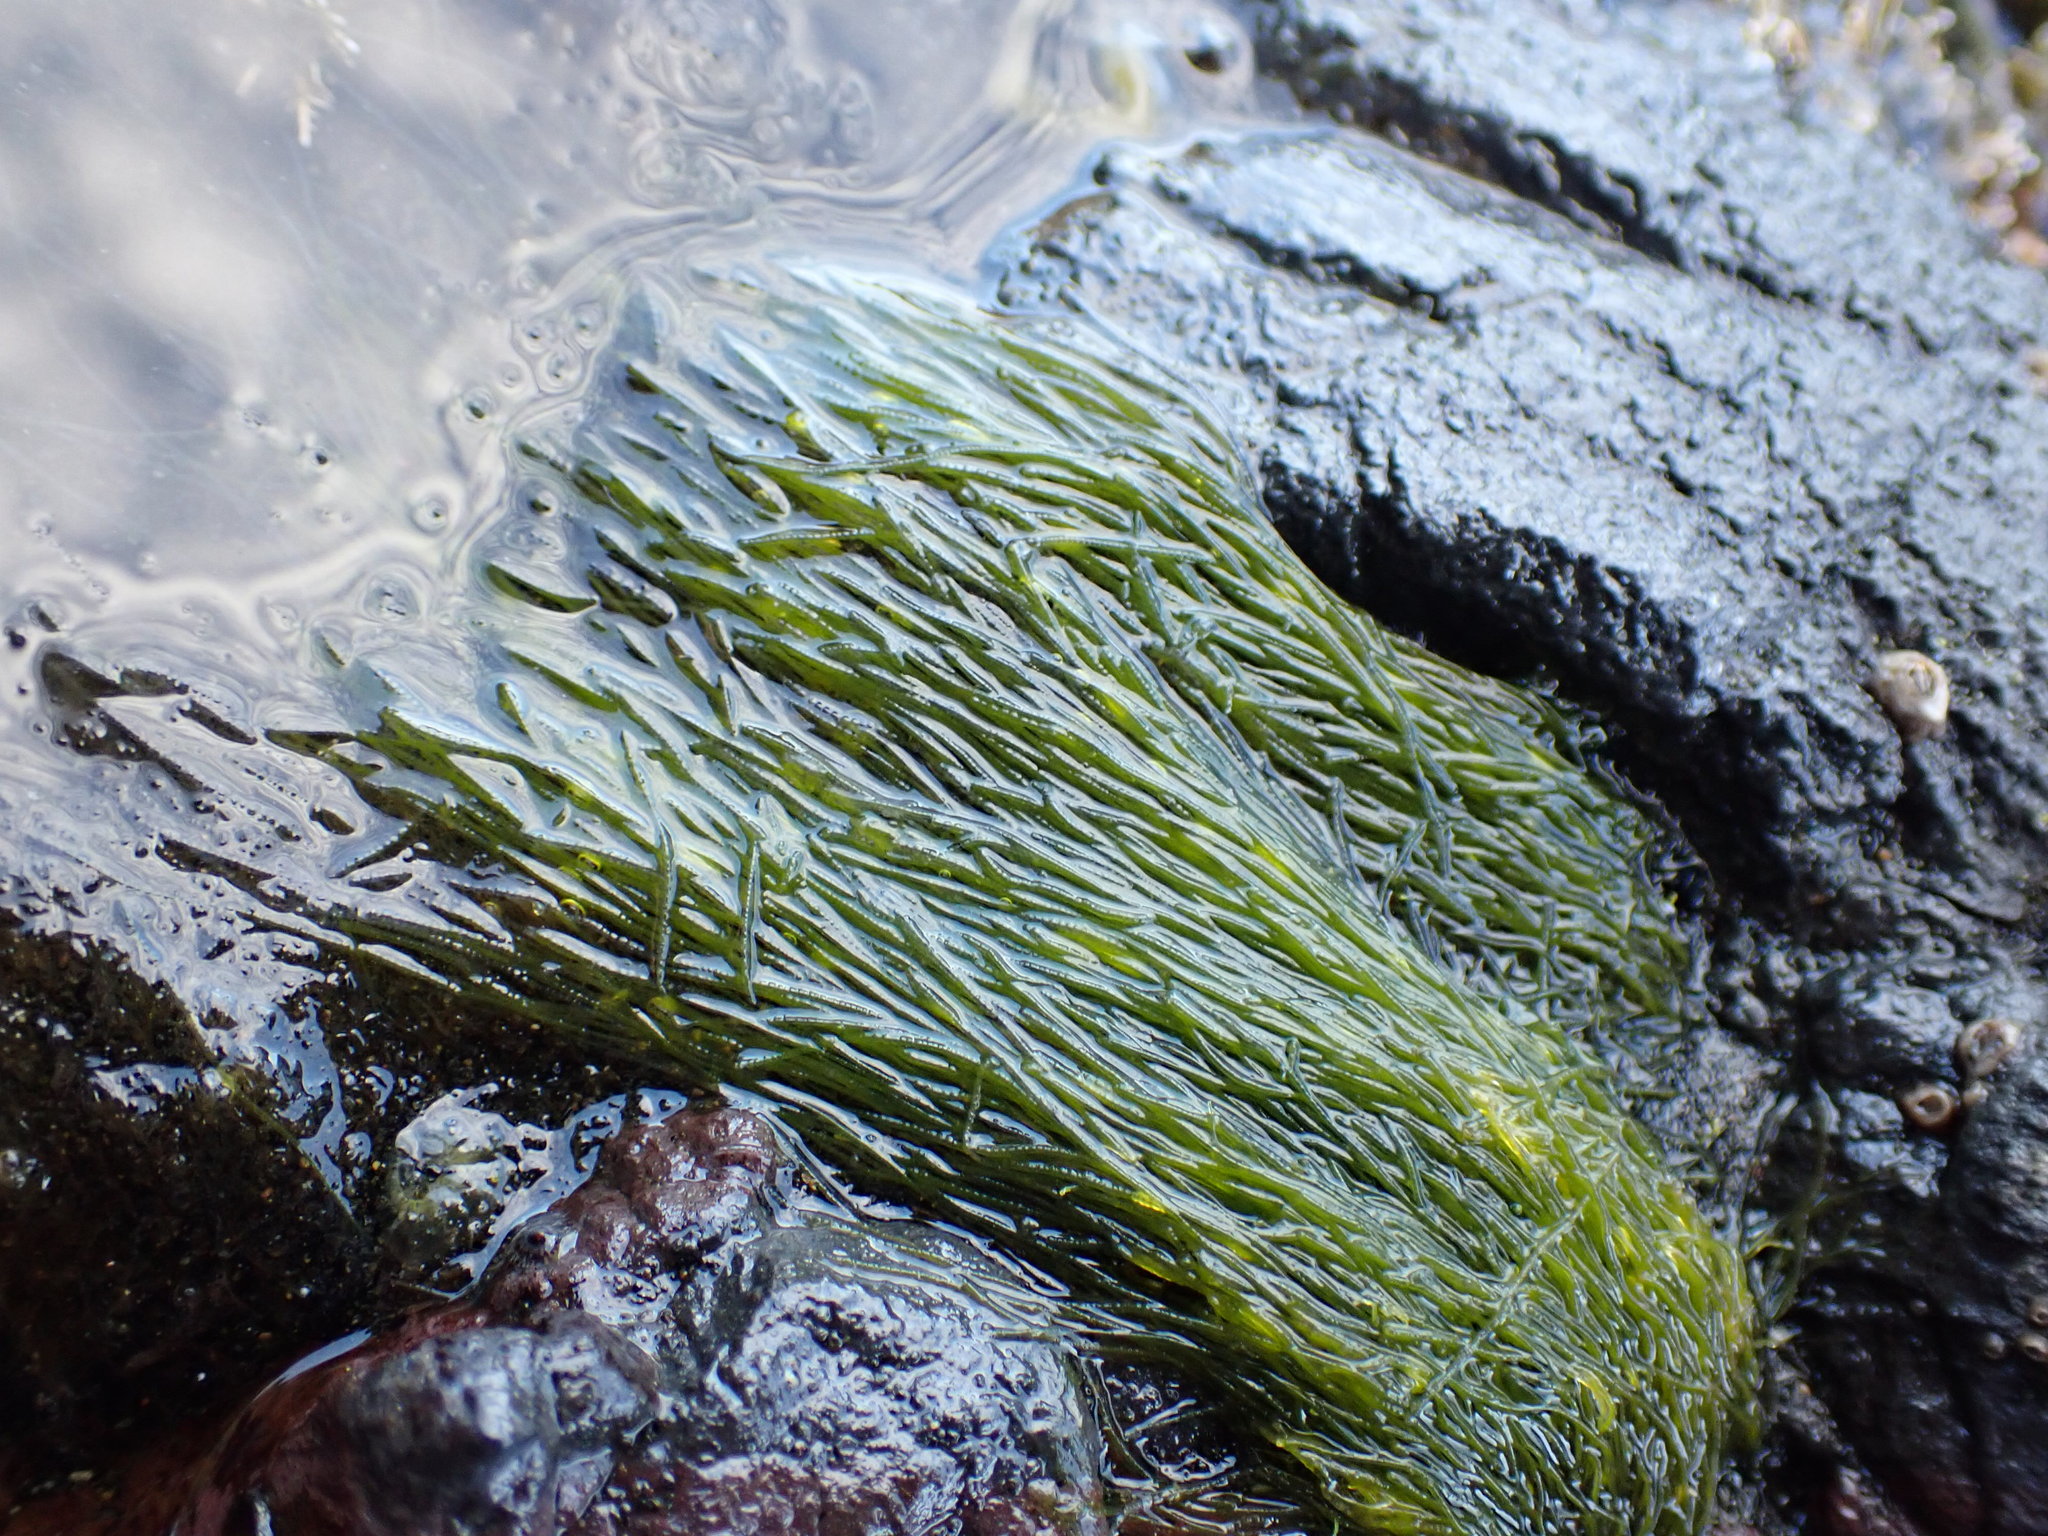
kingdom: Plantae
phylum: Chlorophyta
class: Ulvophyceae
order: Cladophorales
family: Cladophoraceae
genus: Chaetomorpha
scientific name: Chaetomorpha coliformis
